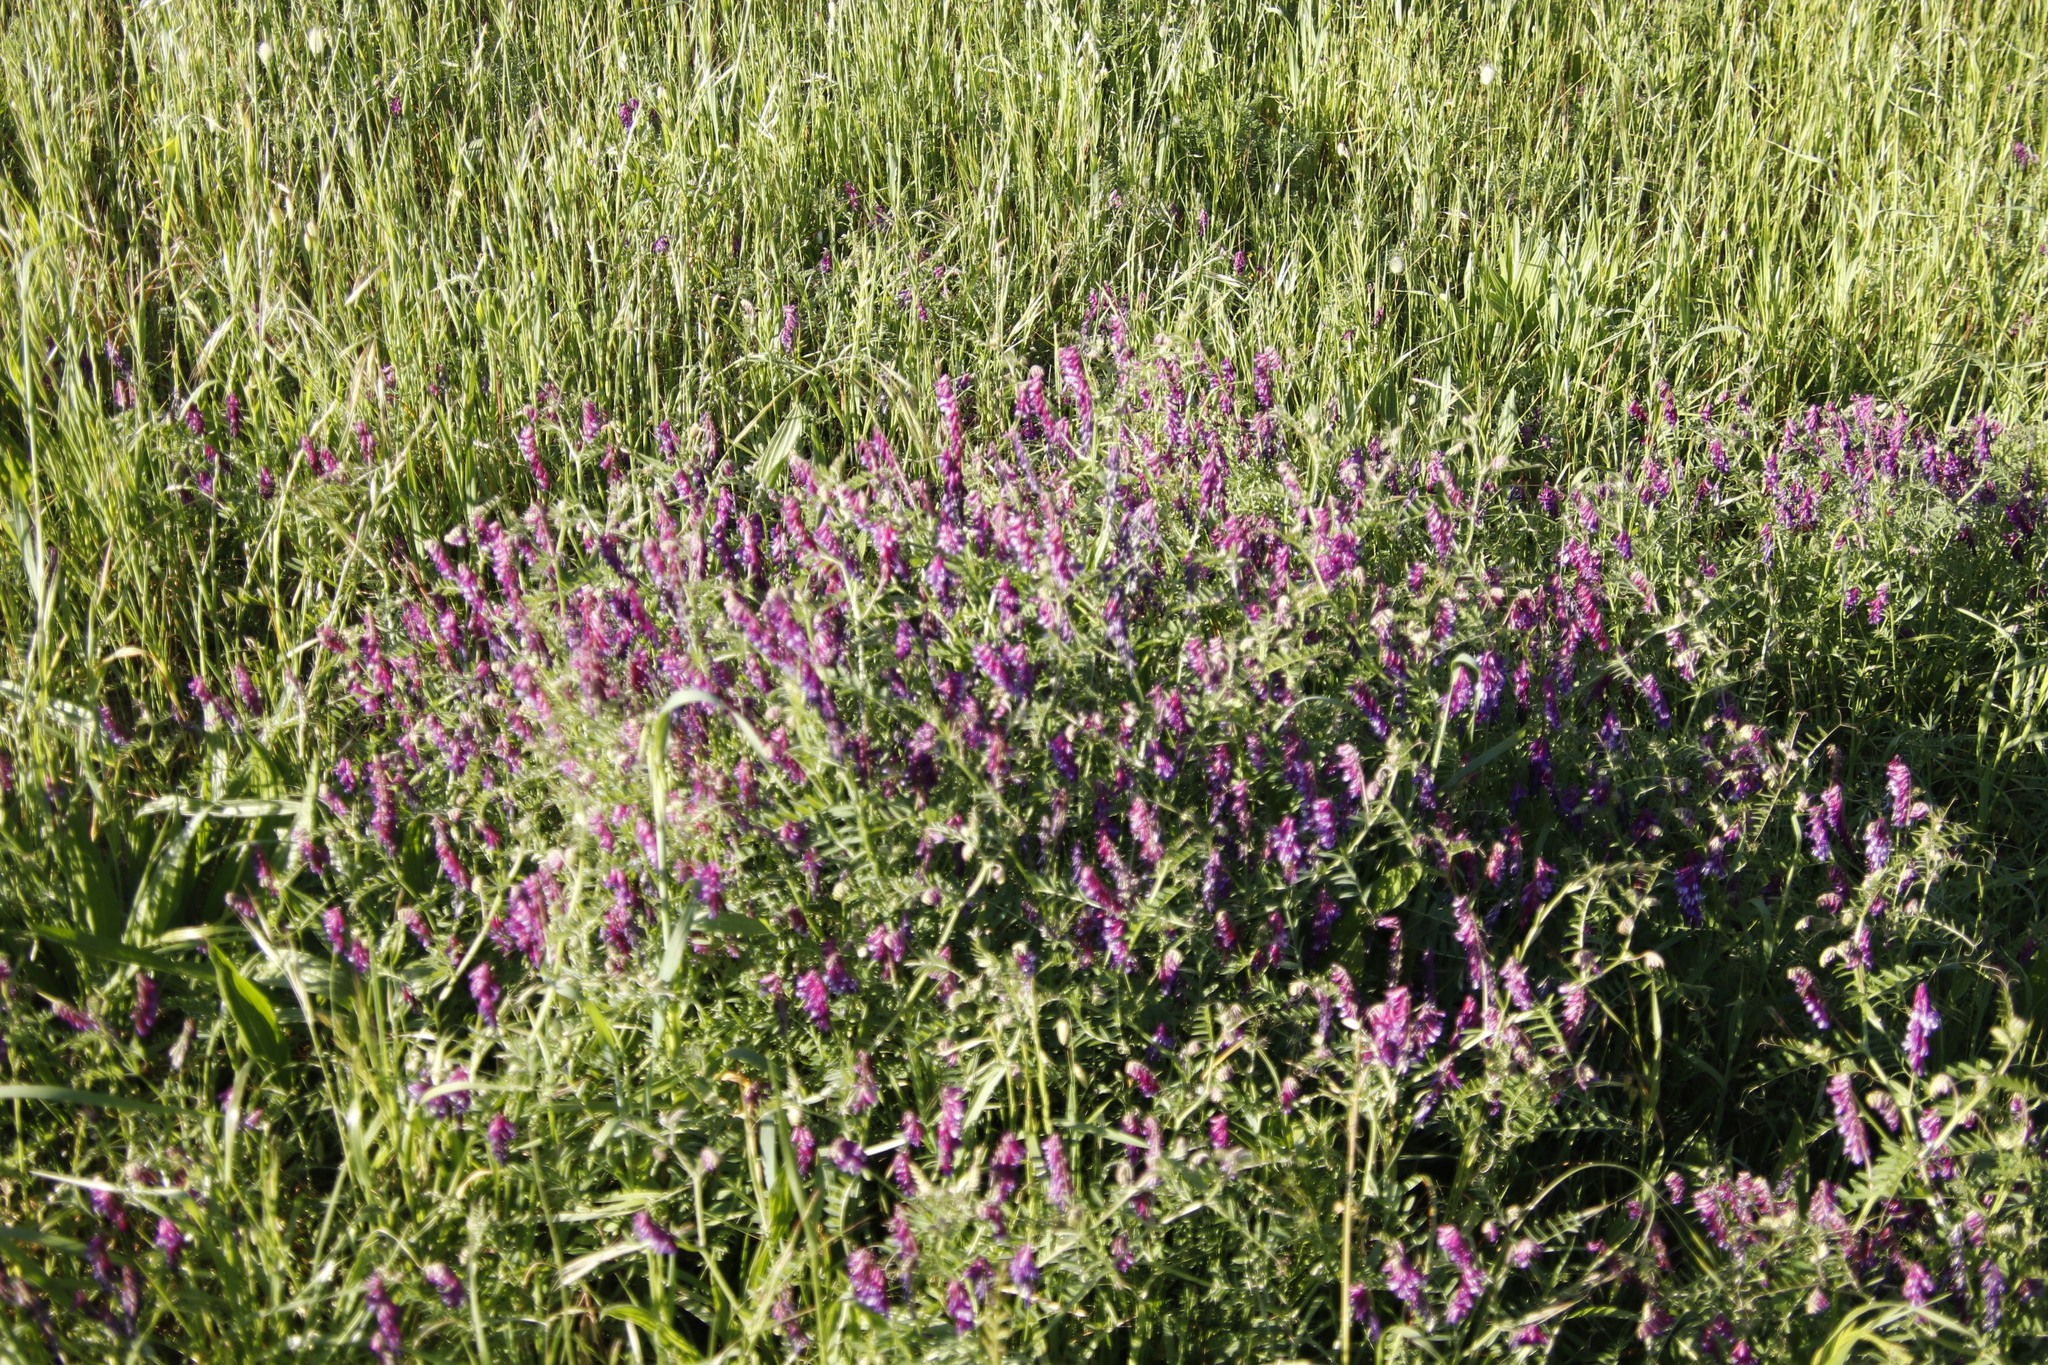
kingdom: Plantae
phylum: Tracheophyta
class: Magnoliopsida
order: Fabales
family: Fabaceae
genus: Vicia
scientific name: Vicia eriocarpa
